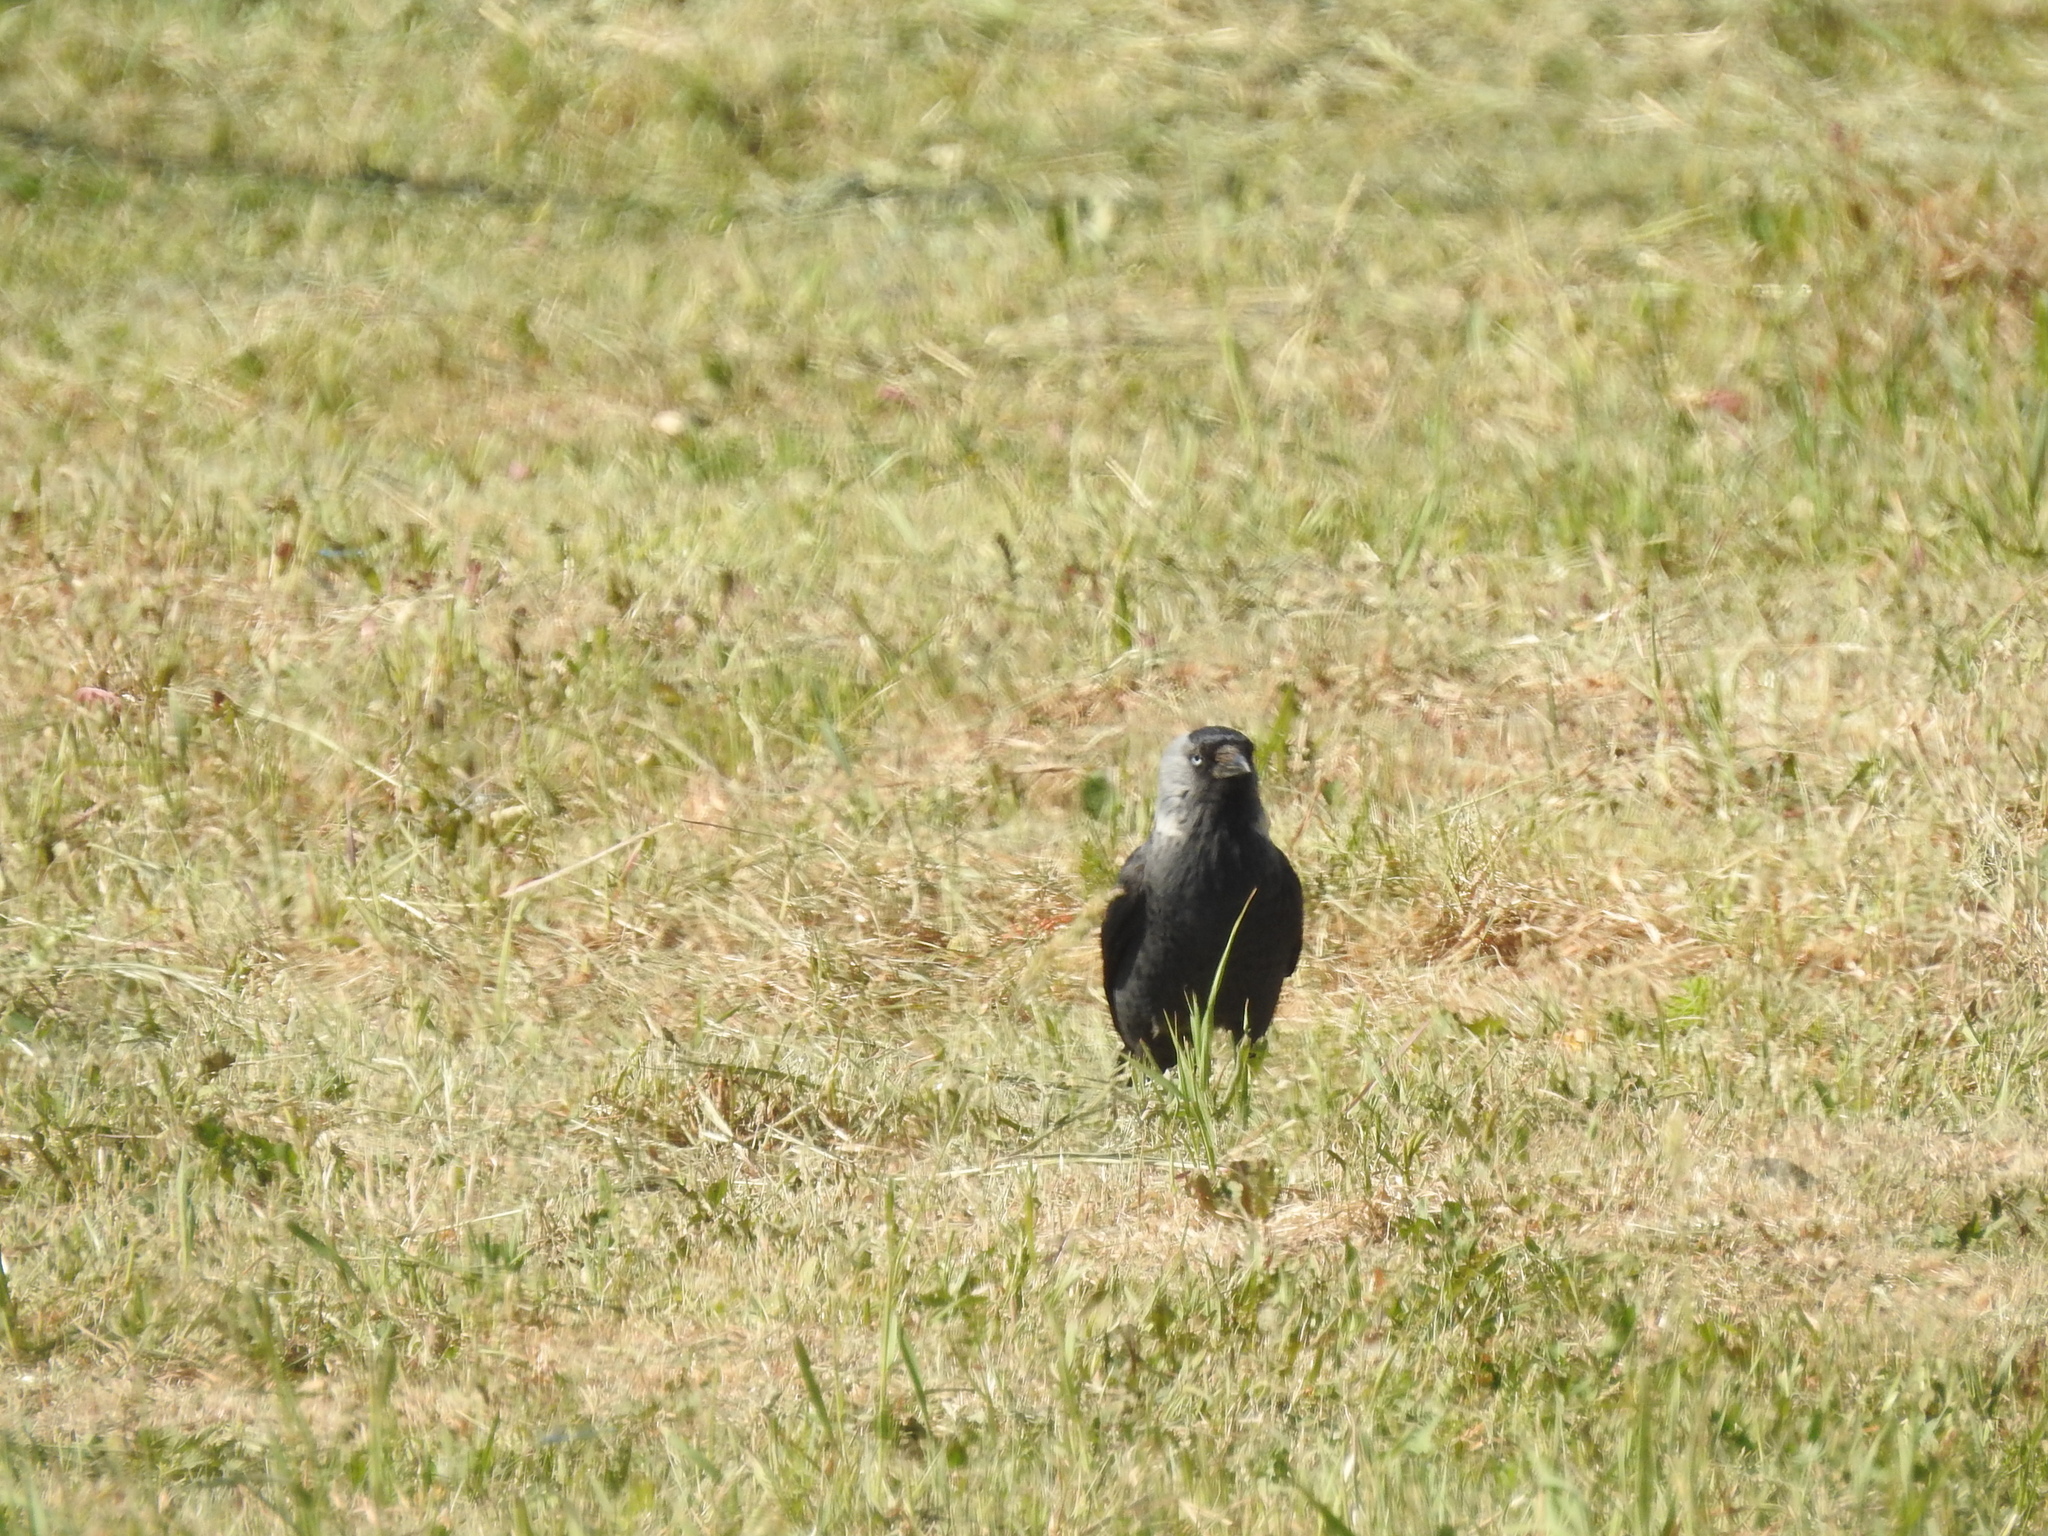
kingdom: Animalia
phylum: Chordata
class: Aves
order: Passeriformes
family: Corvidae
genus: Coloeus
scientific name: Coloeus monedula
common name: Western jackdaw
